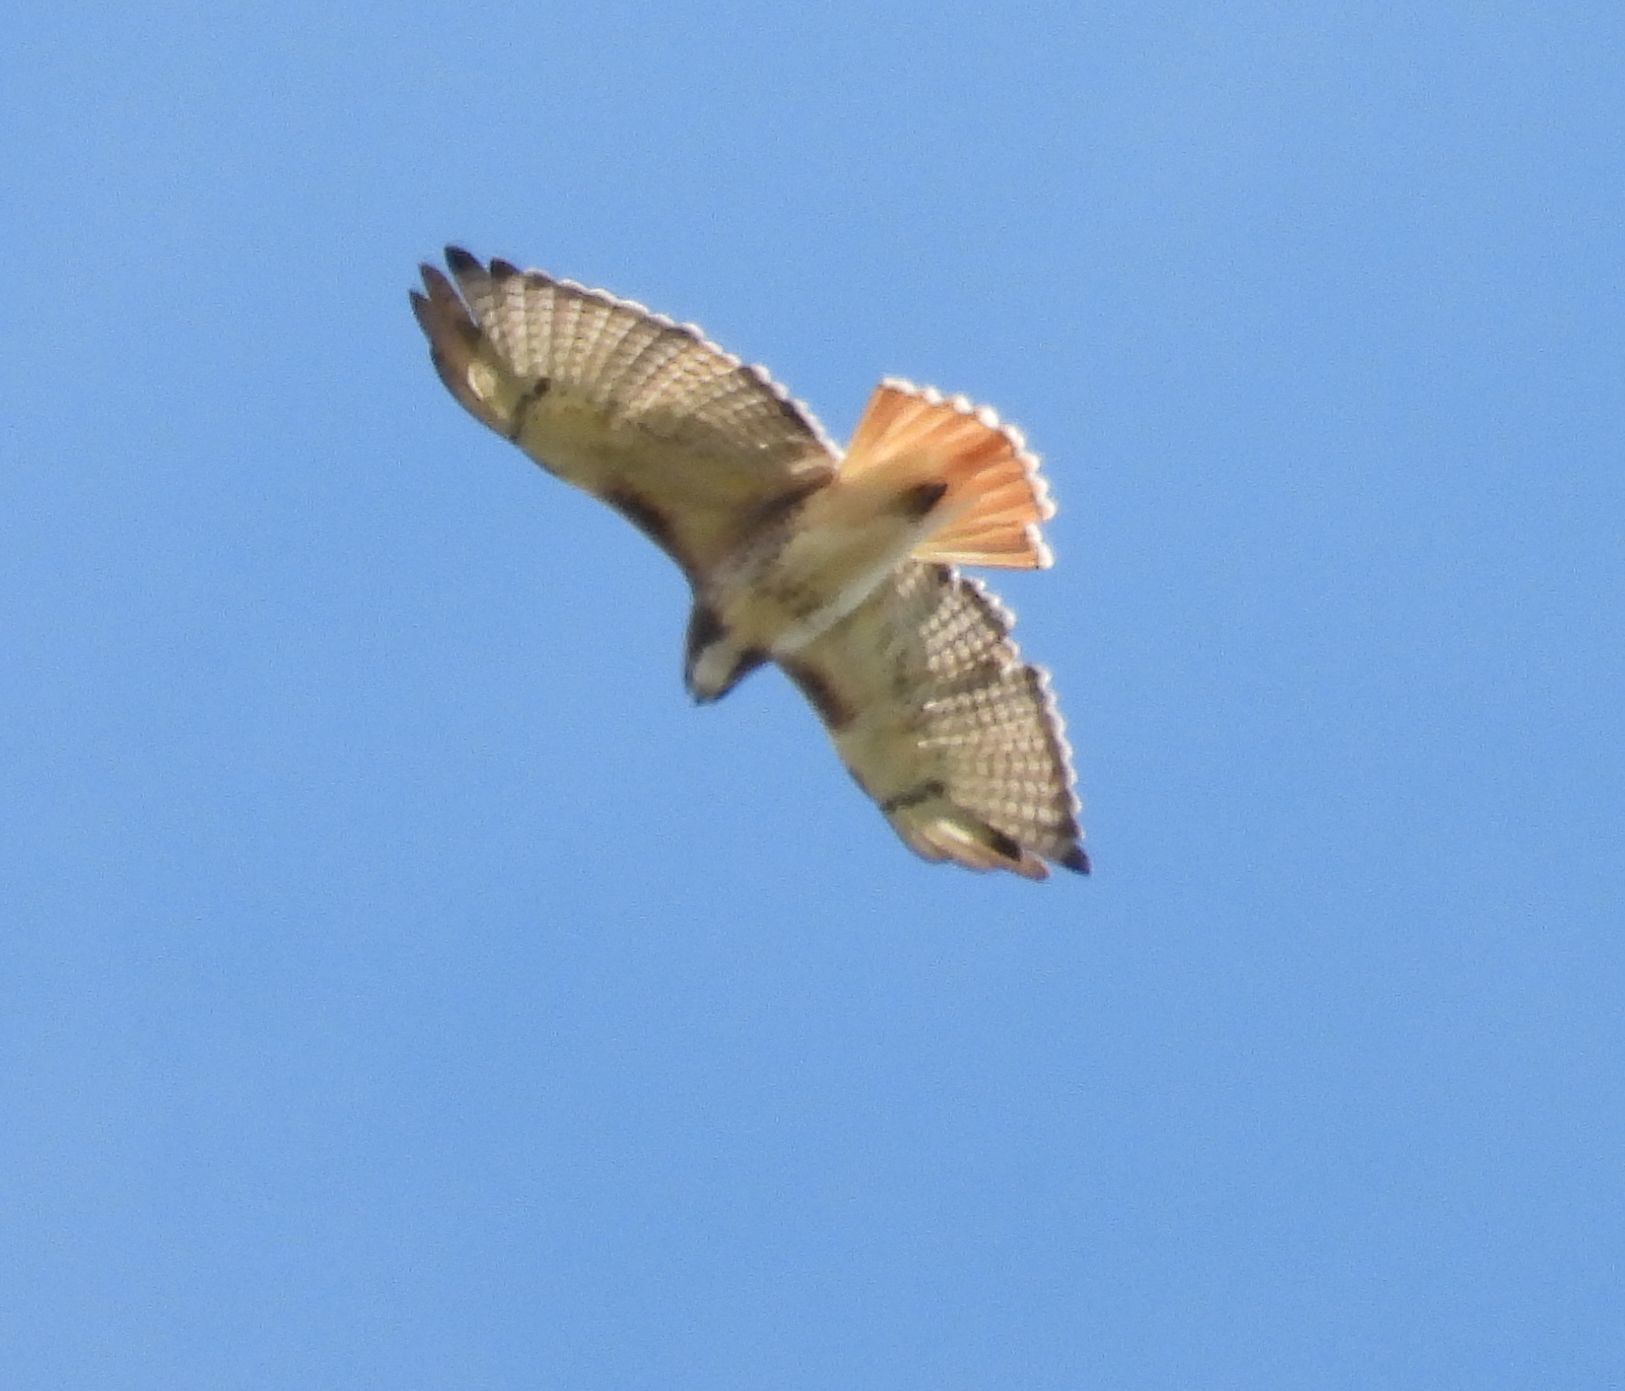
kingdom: Animalia
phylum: Chordata
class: Aves
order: Accipitriformes
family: Accipitridae
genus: Buteo
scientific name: Buteo jamaicensis
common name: Red-tailed hawk
